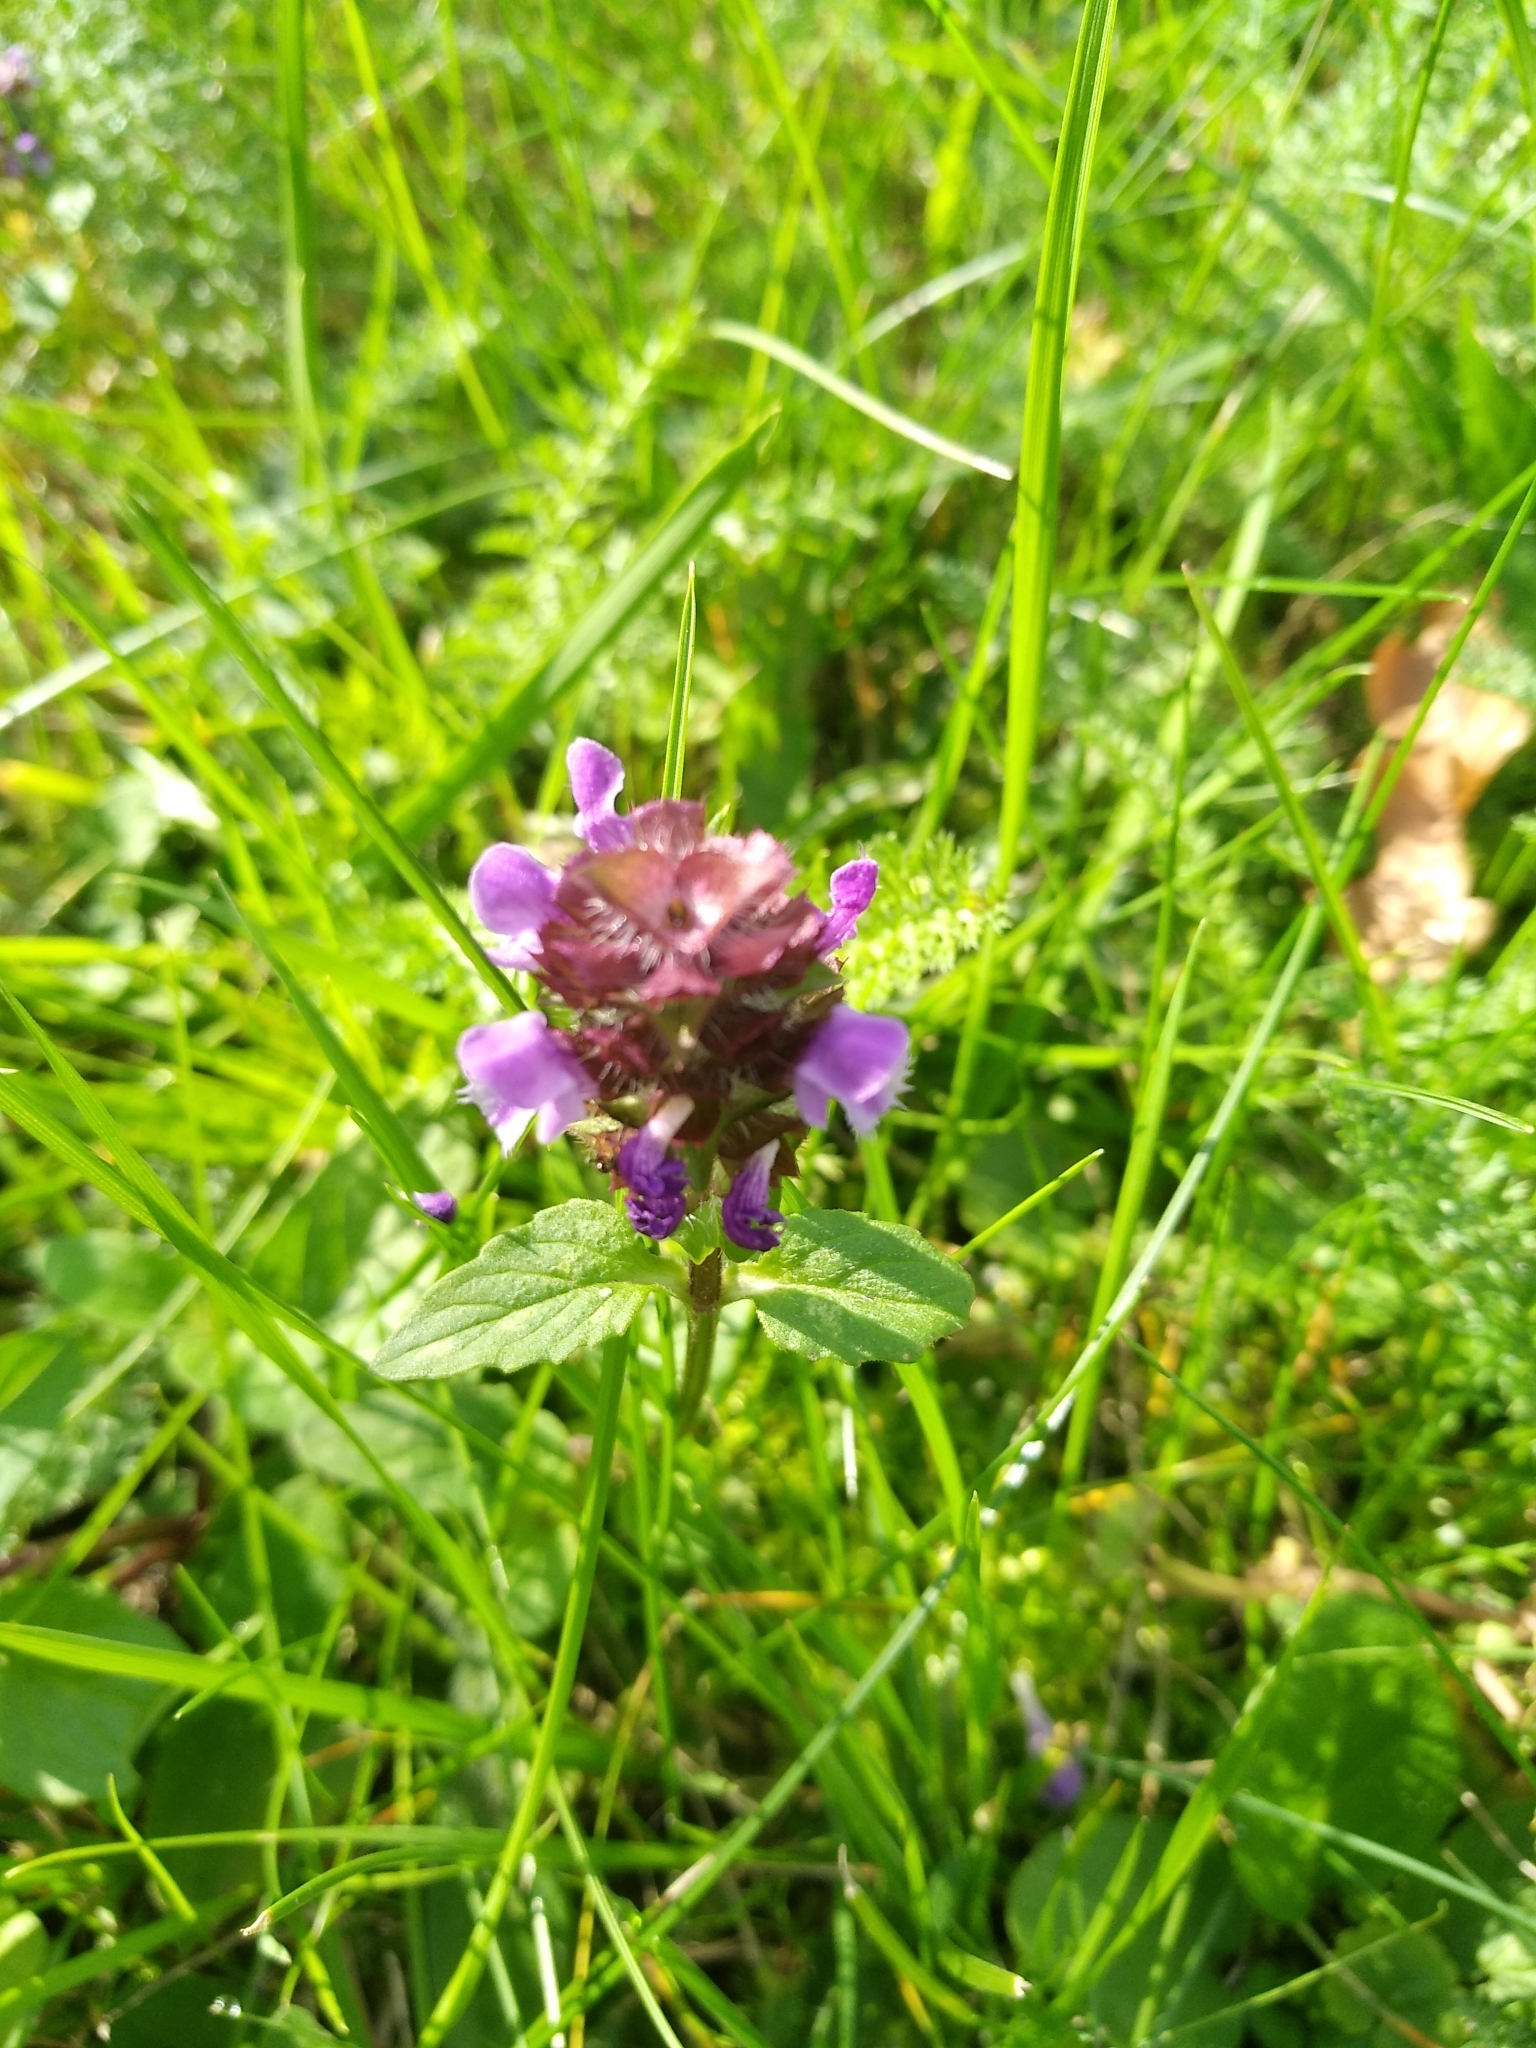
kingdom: Plantae
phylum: Tracheophyta
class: Magnoliopsida
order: Lamiales
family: Lamiaceae
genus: Prunella
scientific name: Prunella vulgaris
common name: Heal-all
